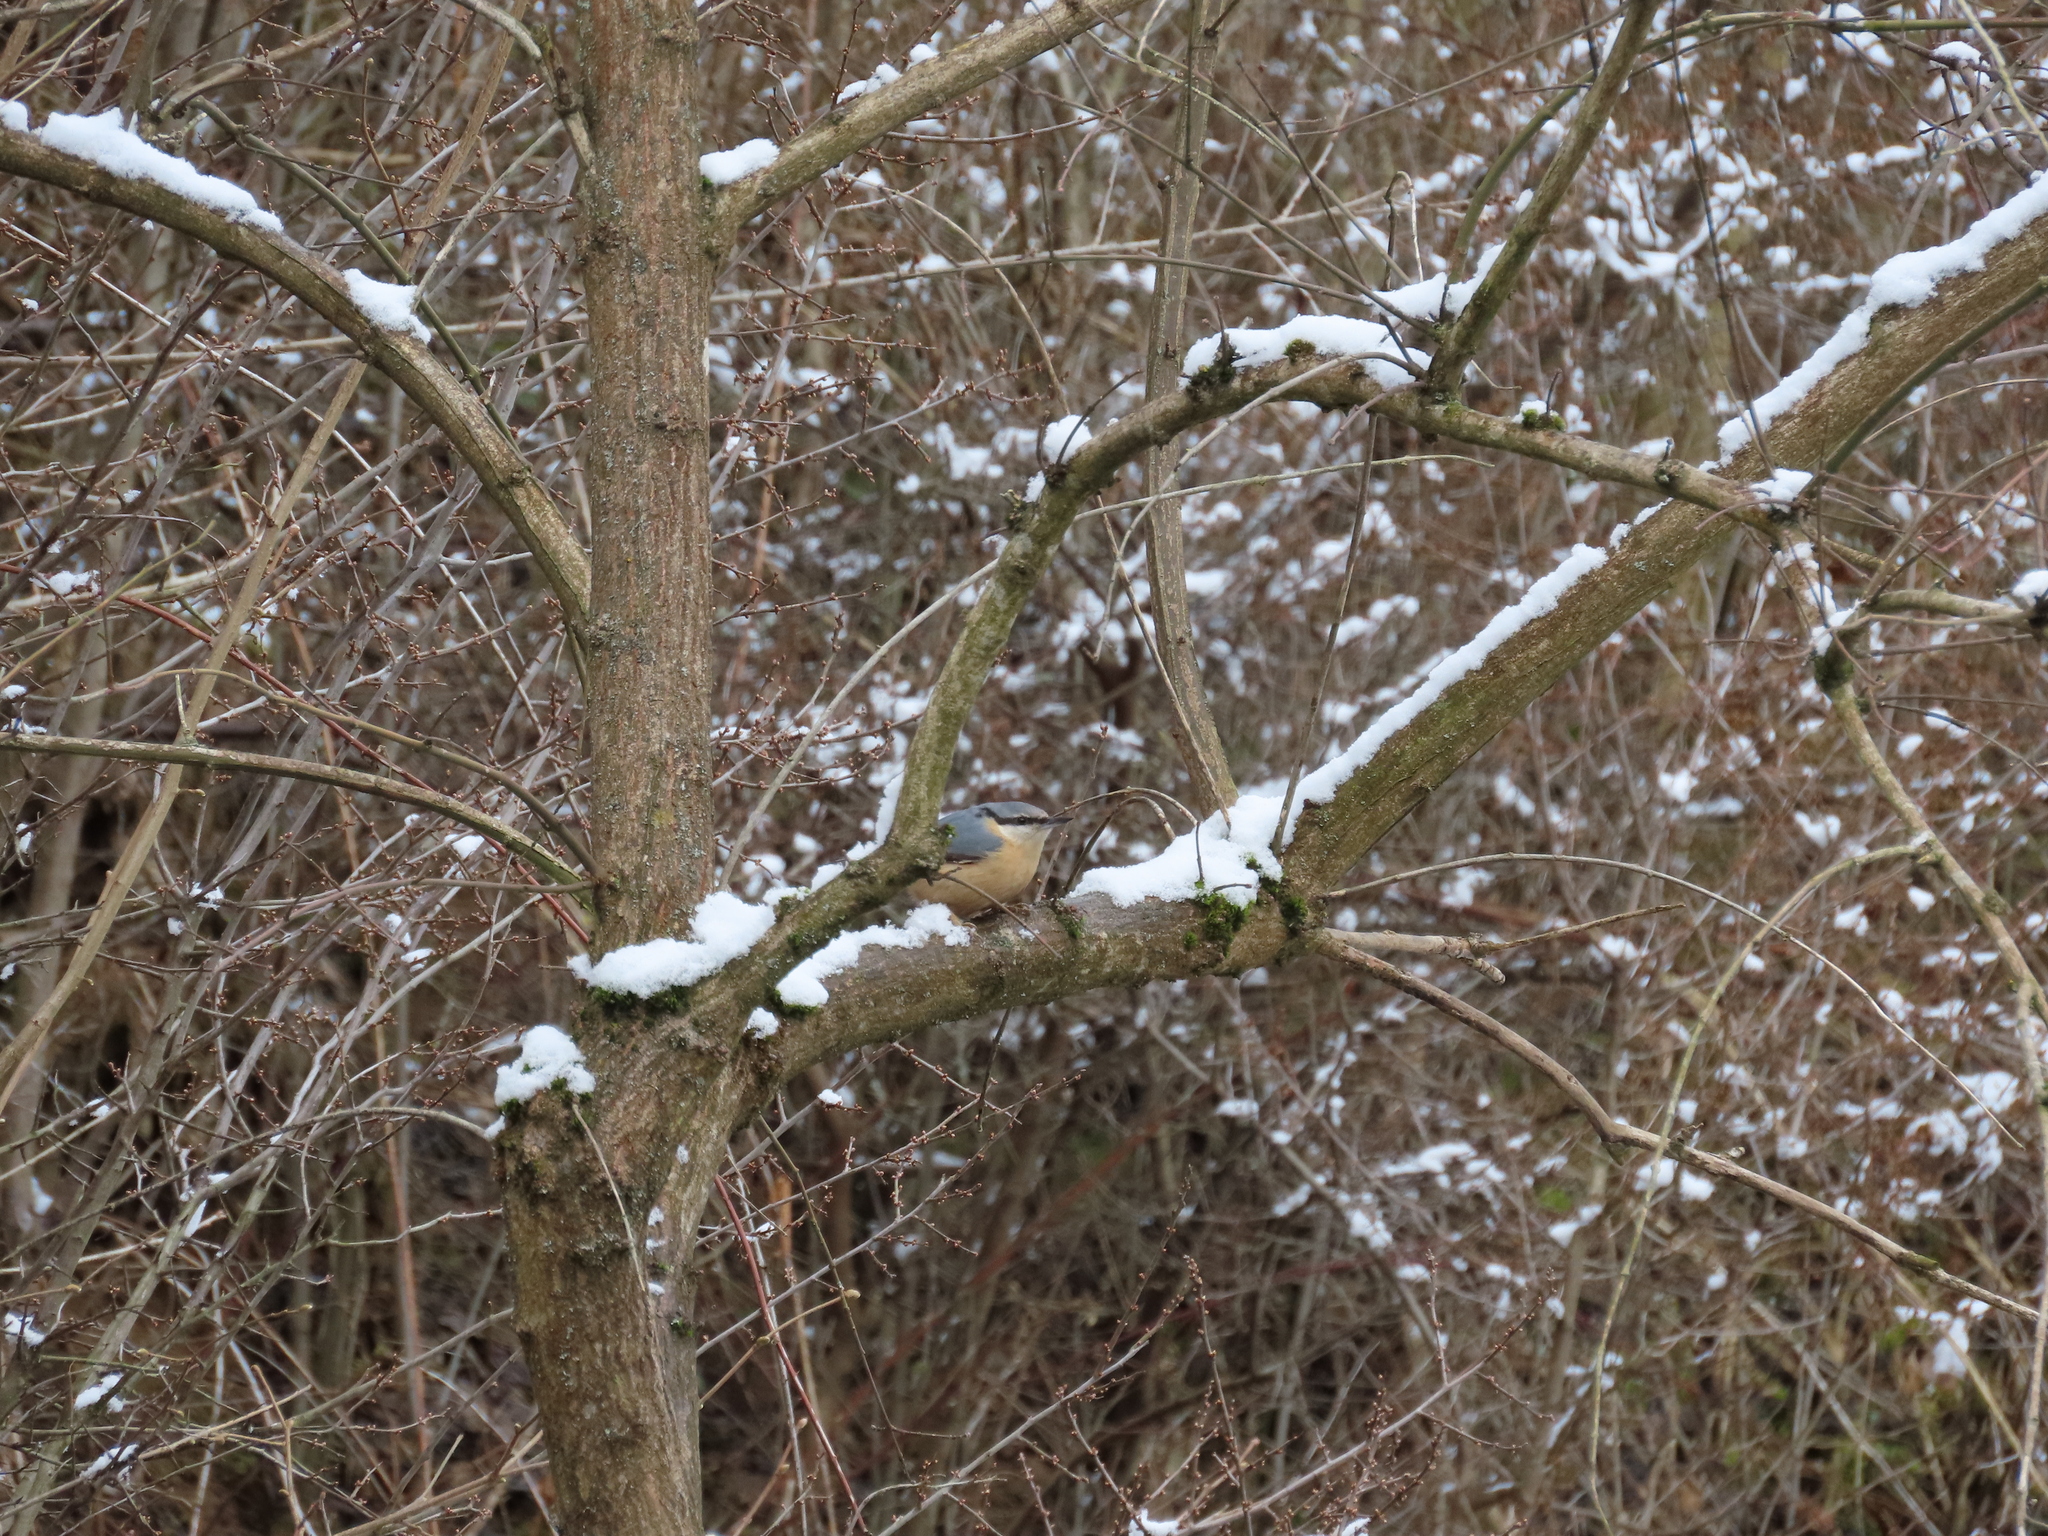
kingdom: Animalia
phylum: Chordata
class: Aves
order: Passeriformes
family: Sittidae
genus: Sitta
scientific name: Sitta europaea
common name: Eurasian nuthatch
